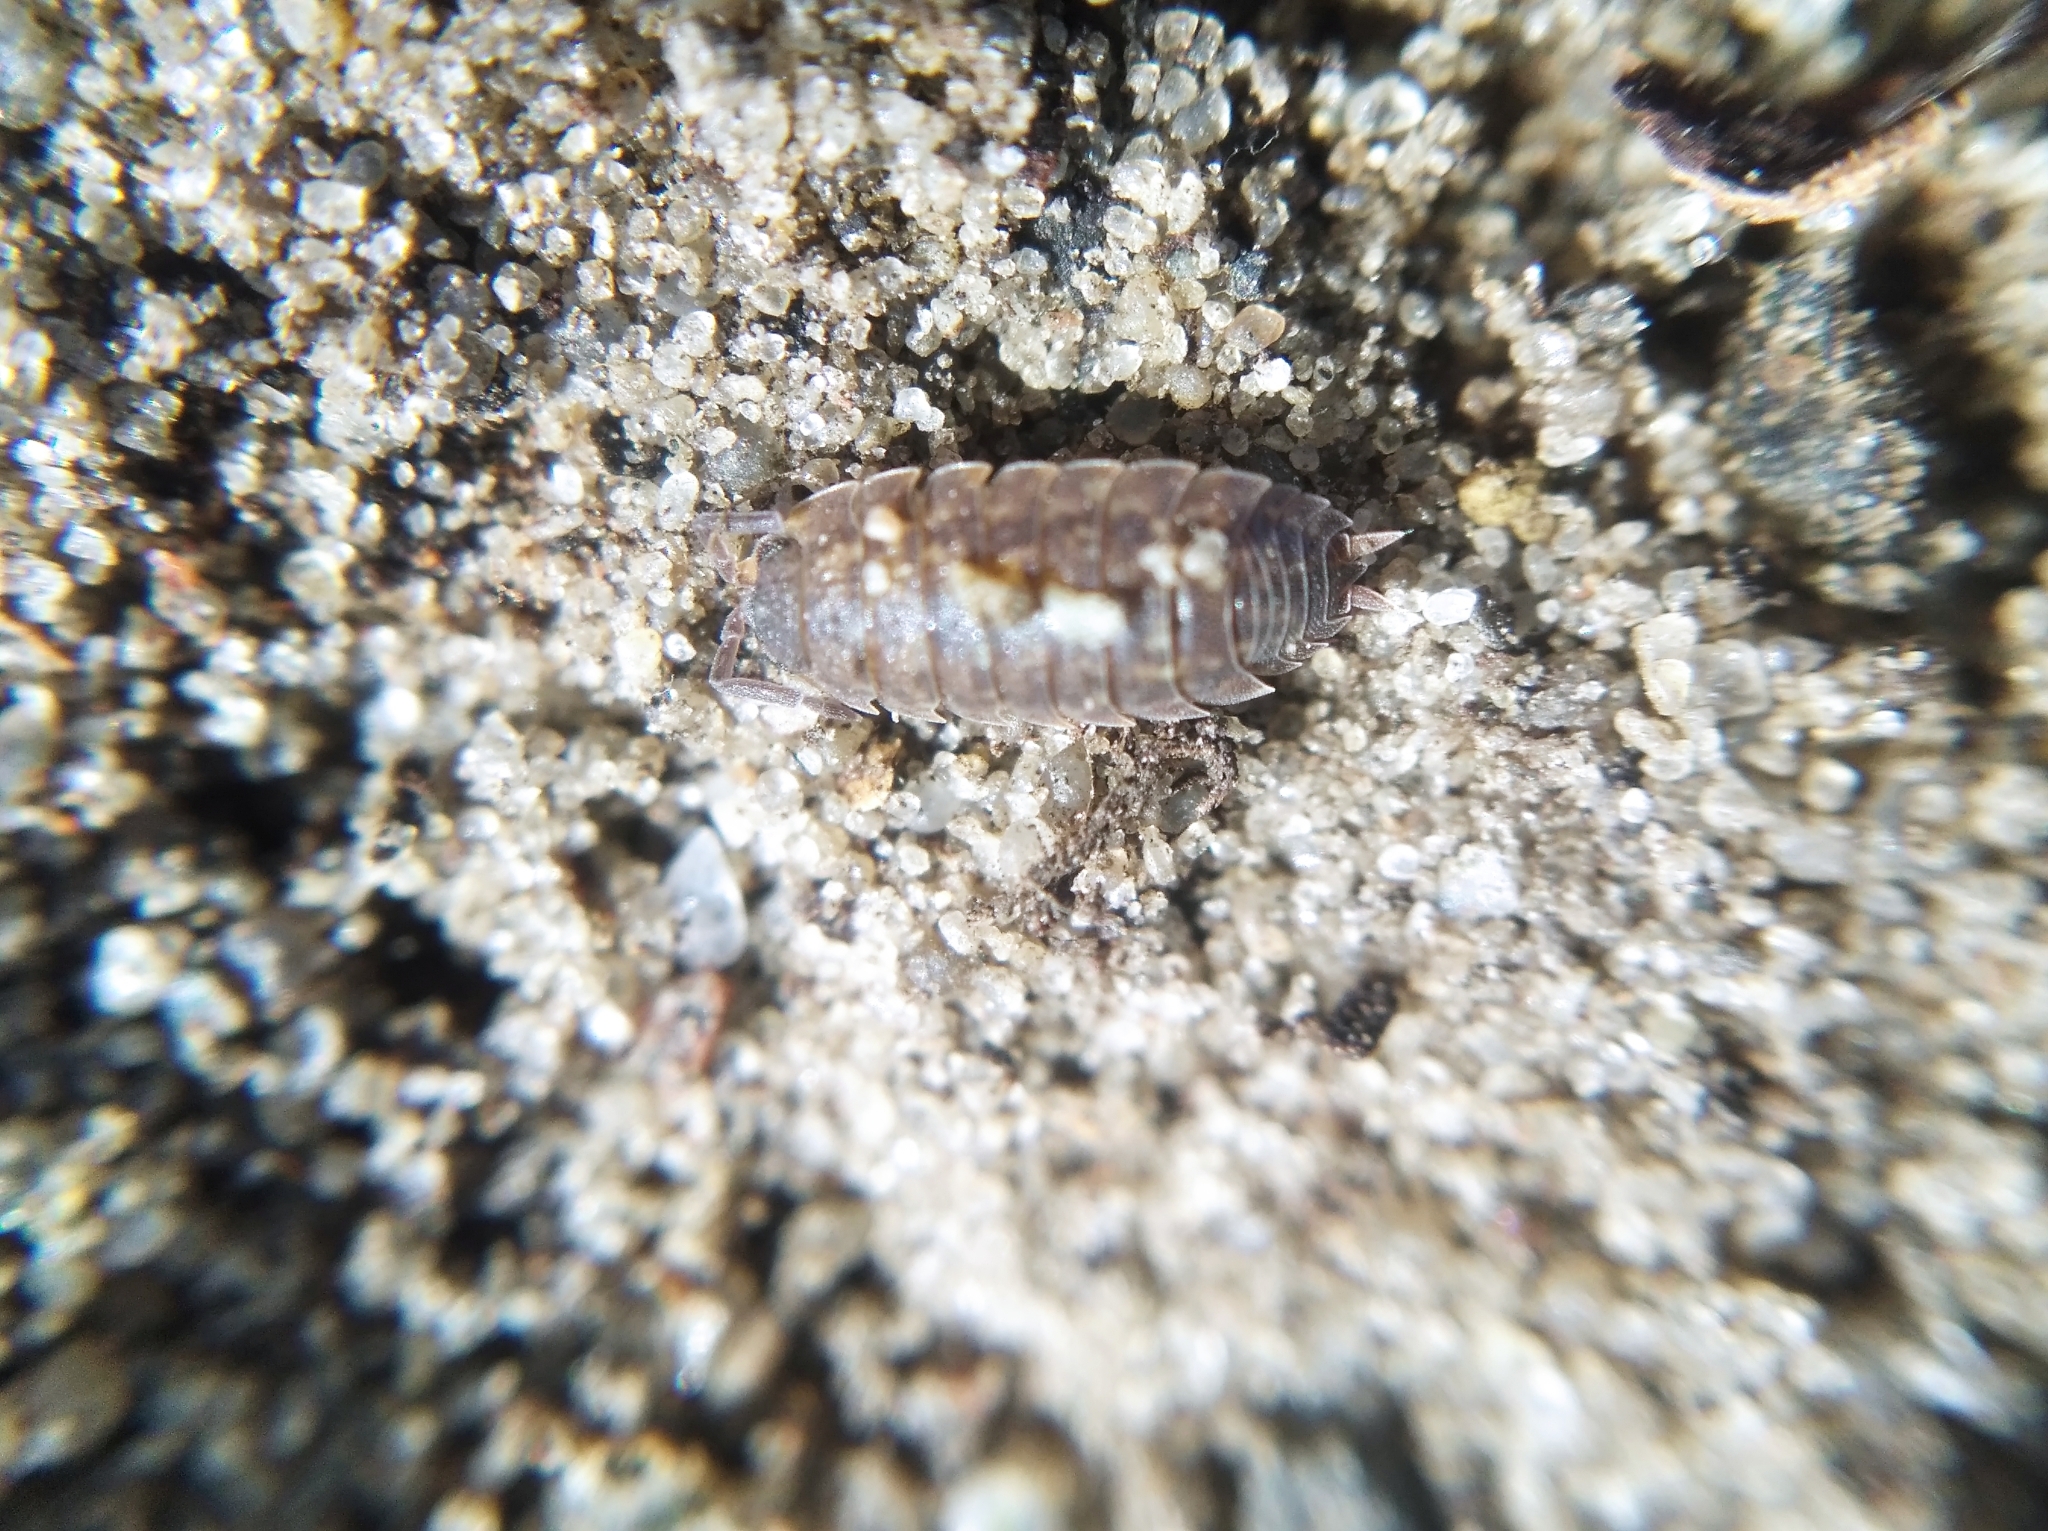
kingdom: Animalia
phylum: Arthropoda
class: Malacostraca
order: Isopoda
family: Porcellionidae
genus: Porcellio
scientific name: Porcellio scaber
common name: Common rough woodlouse
